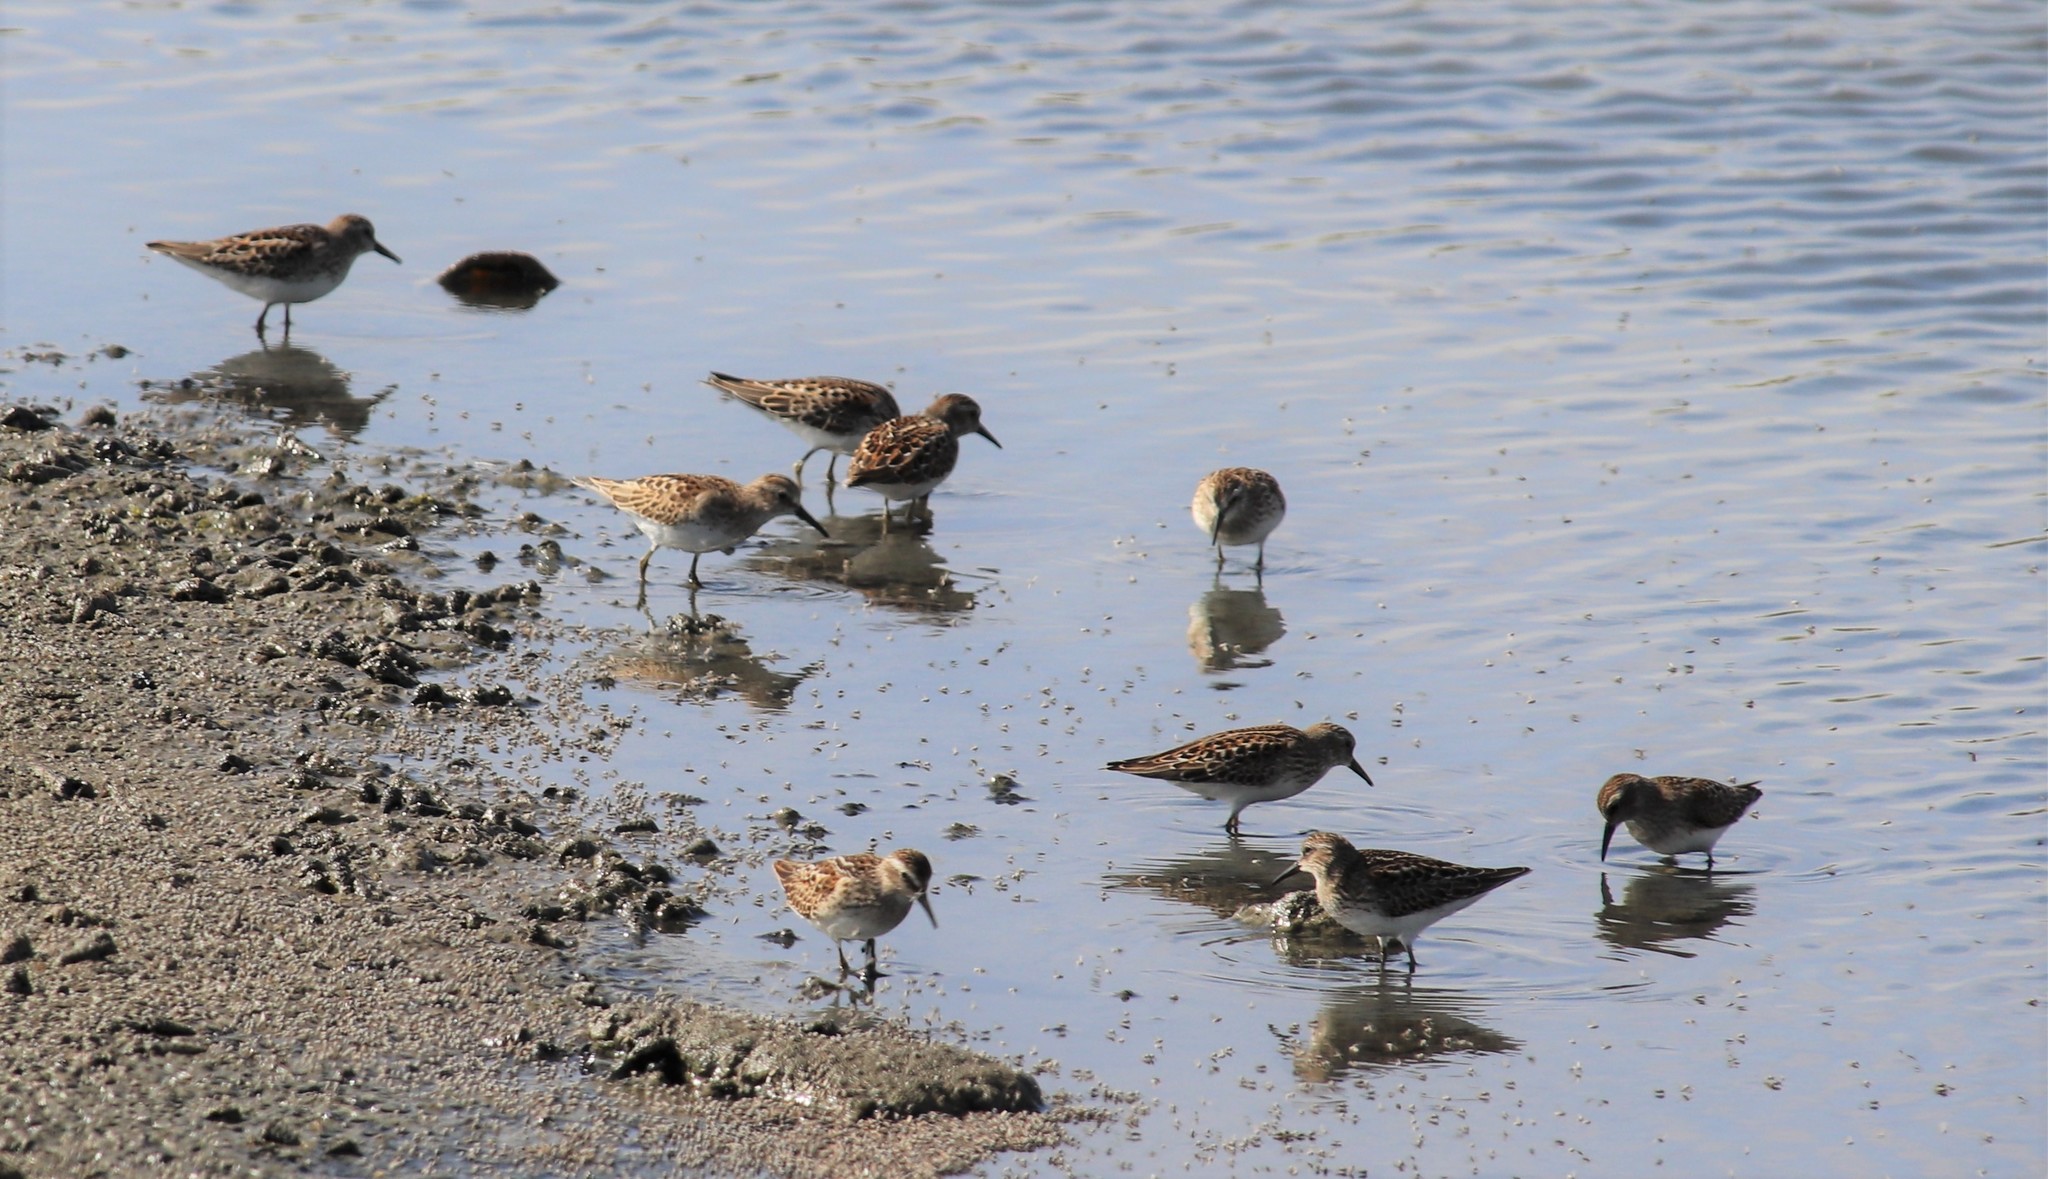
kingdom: Animalia
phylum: Chordata
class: Aves
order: Charadriiformes
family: Scolopacidae
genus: Calidris
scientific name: Calidris minutilla
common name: Least sandpiper
